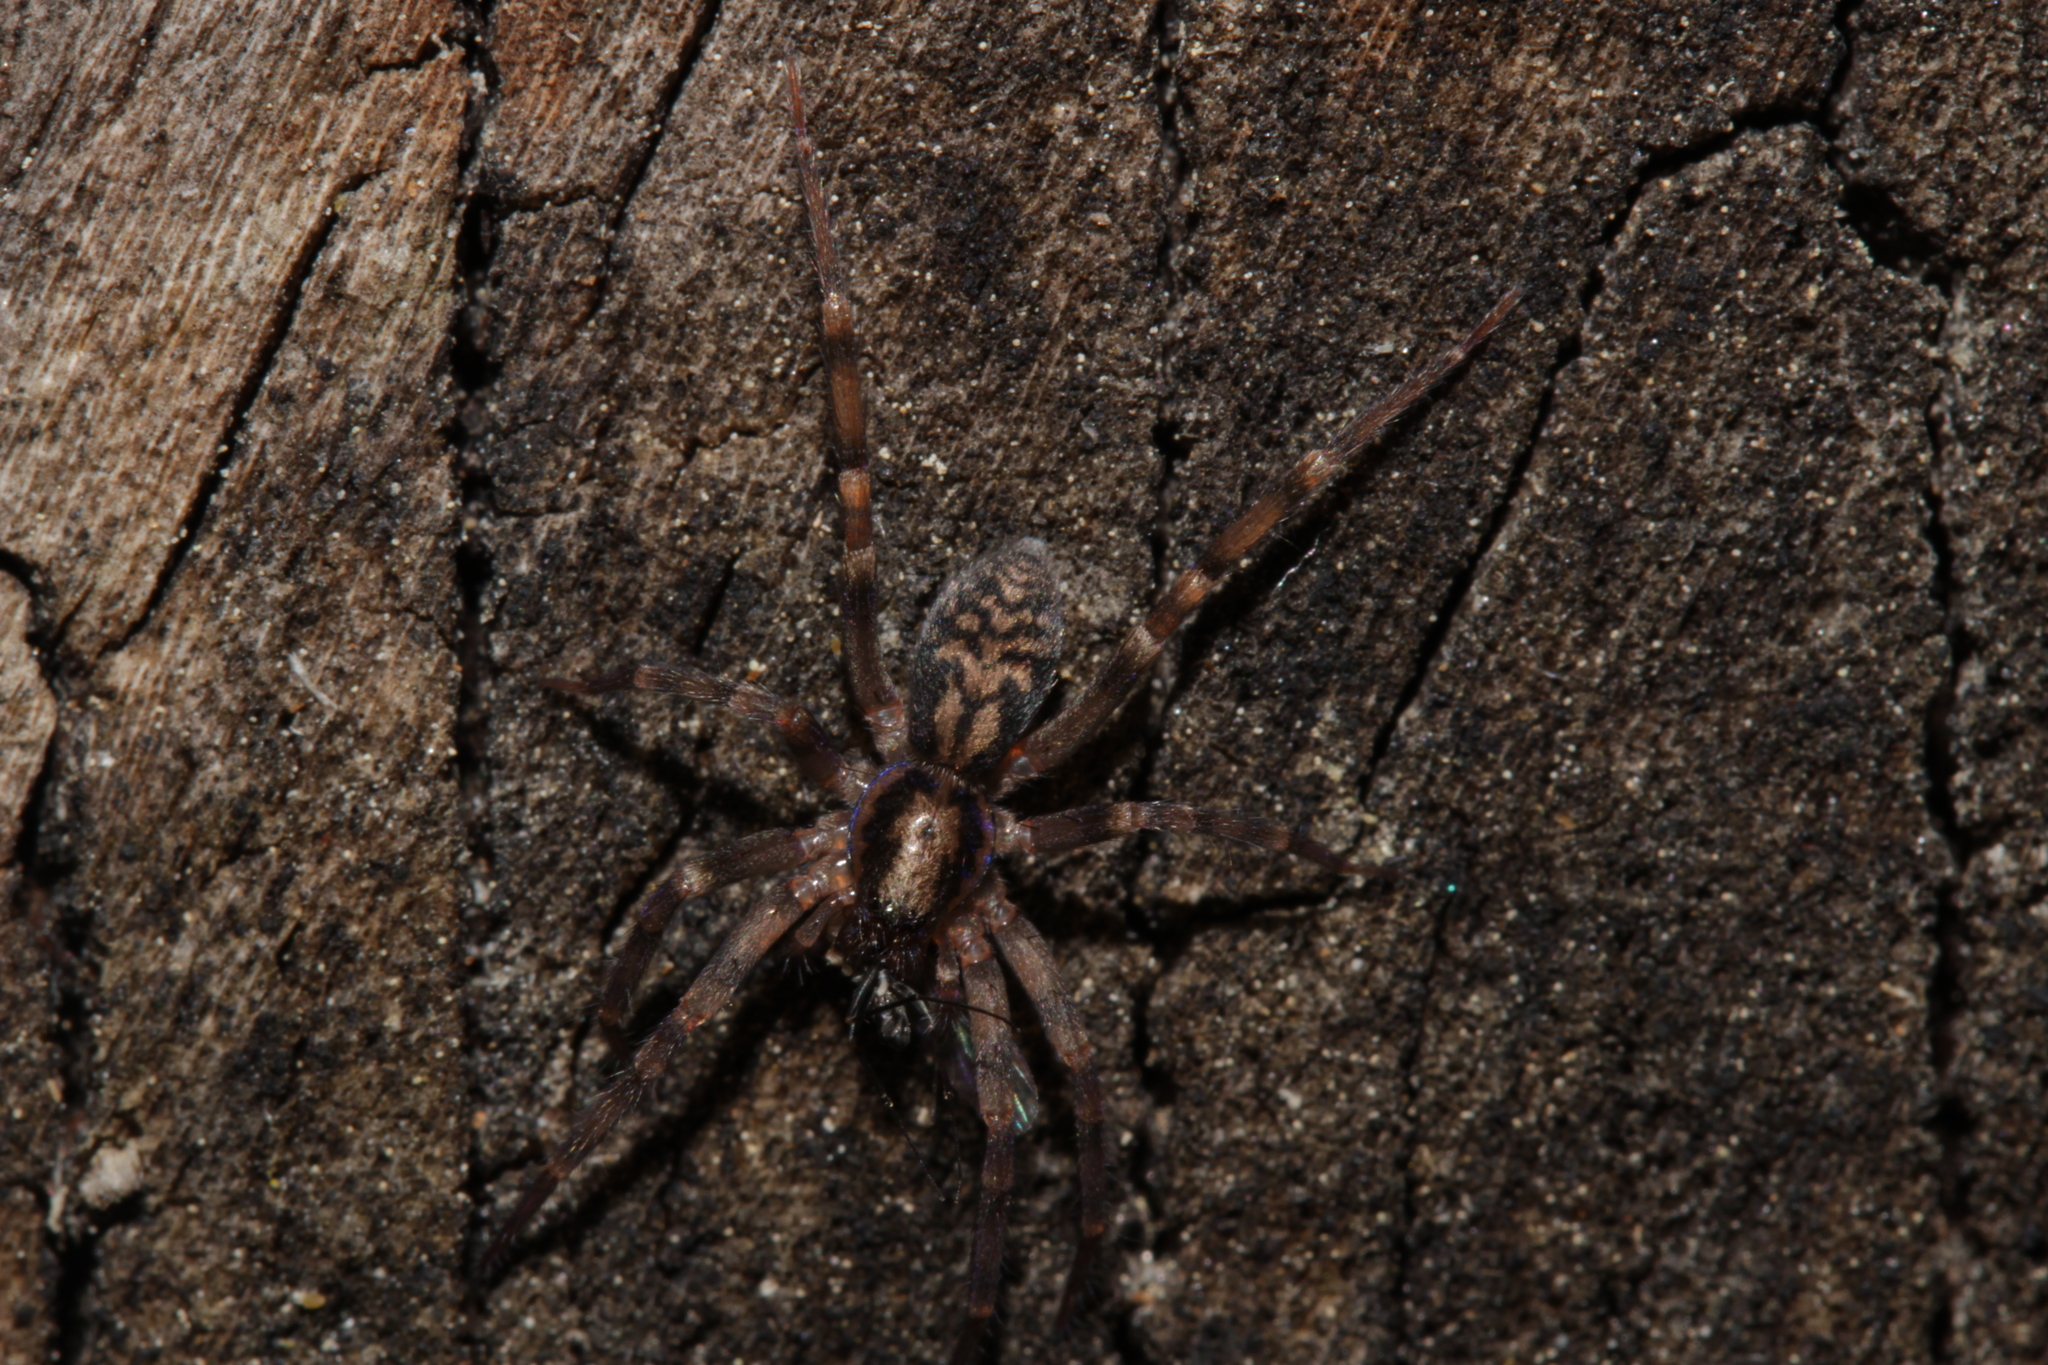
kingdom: Animalia
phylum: Arthropoda
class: Arachnida
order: Araneae
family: Liocranidae
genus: Liocranum
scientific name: Liocranum rupicola
